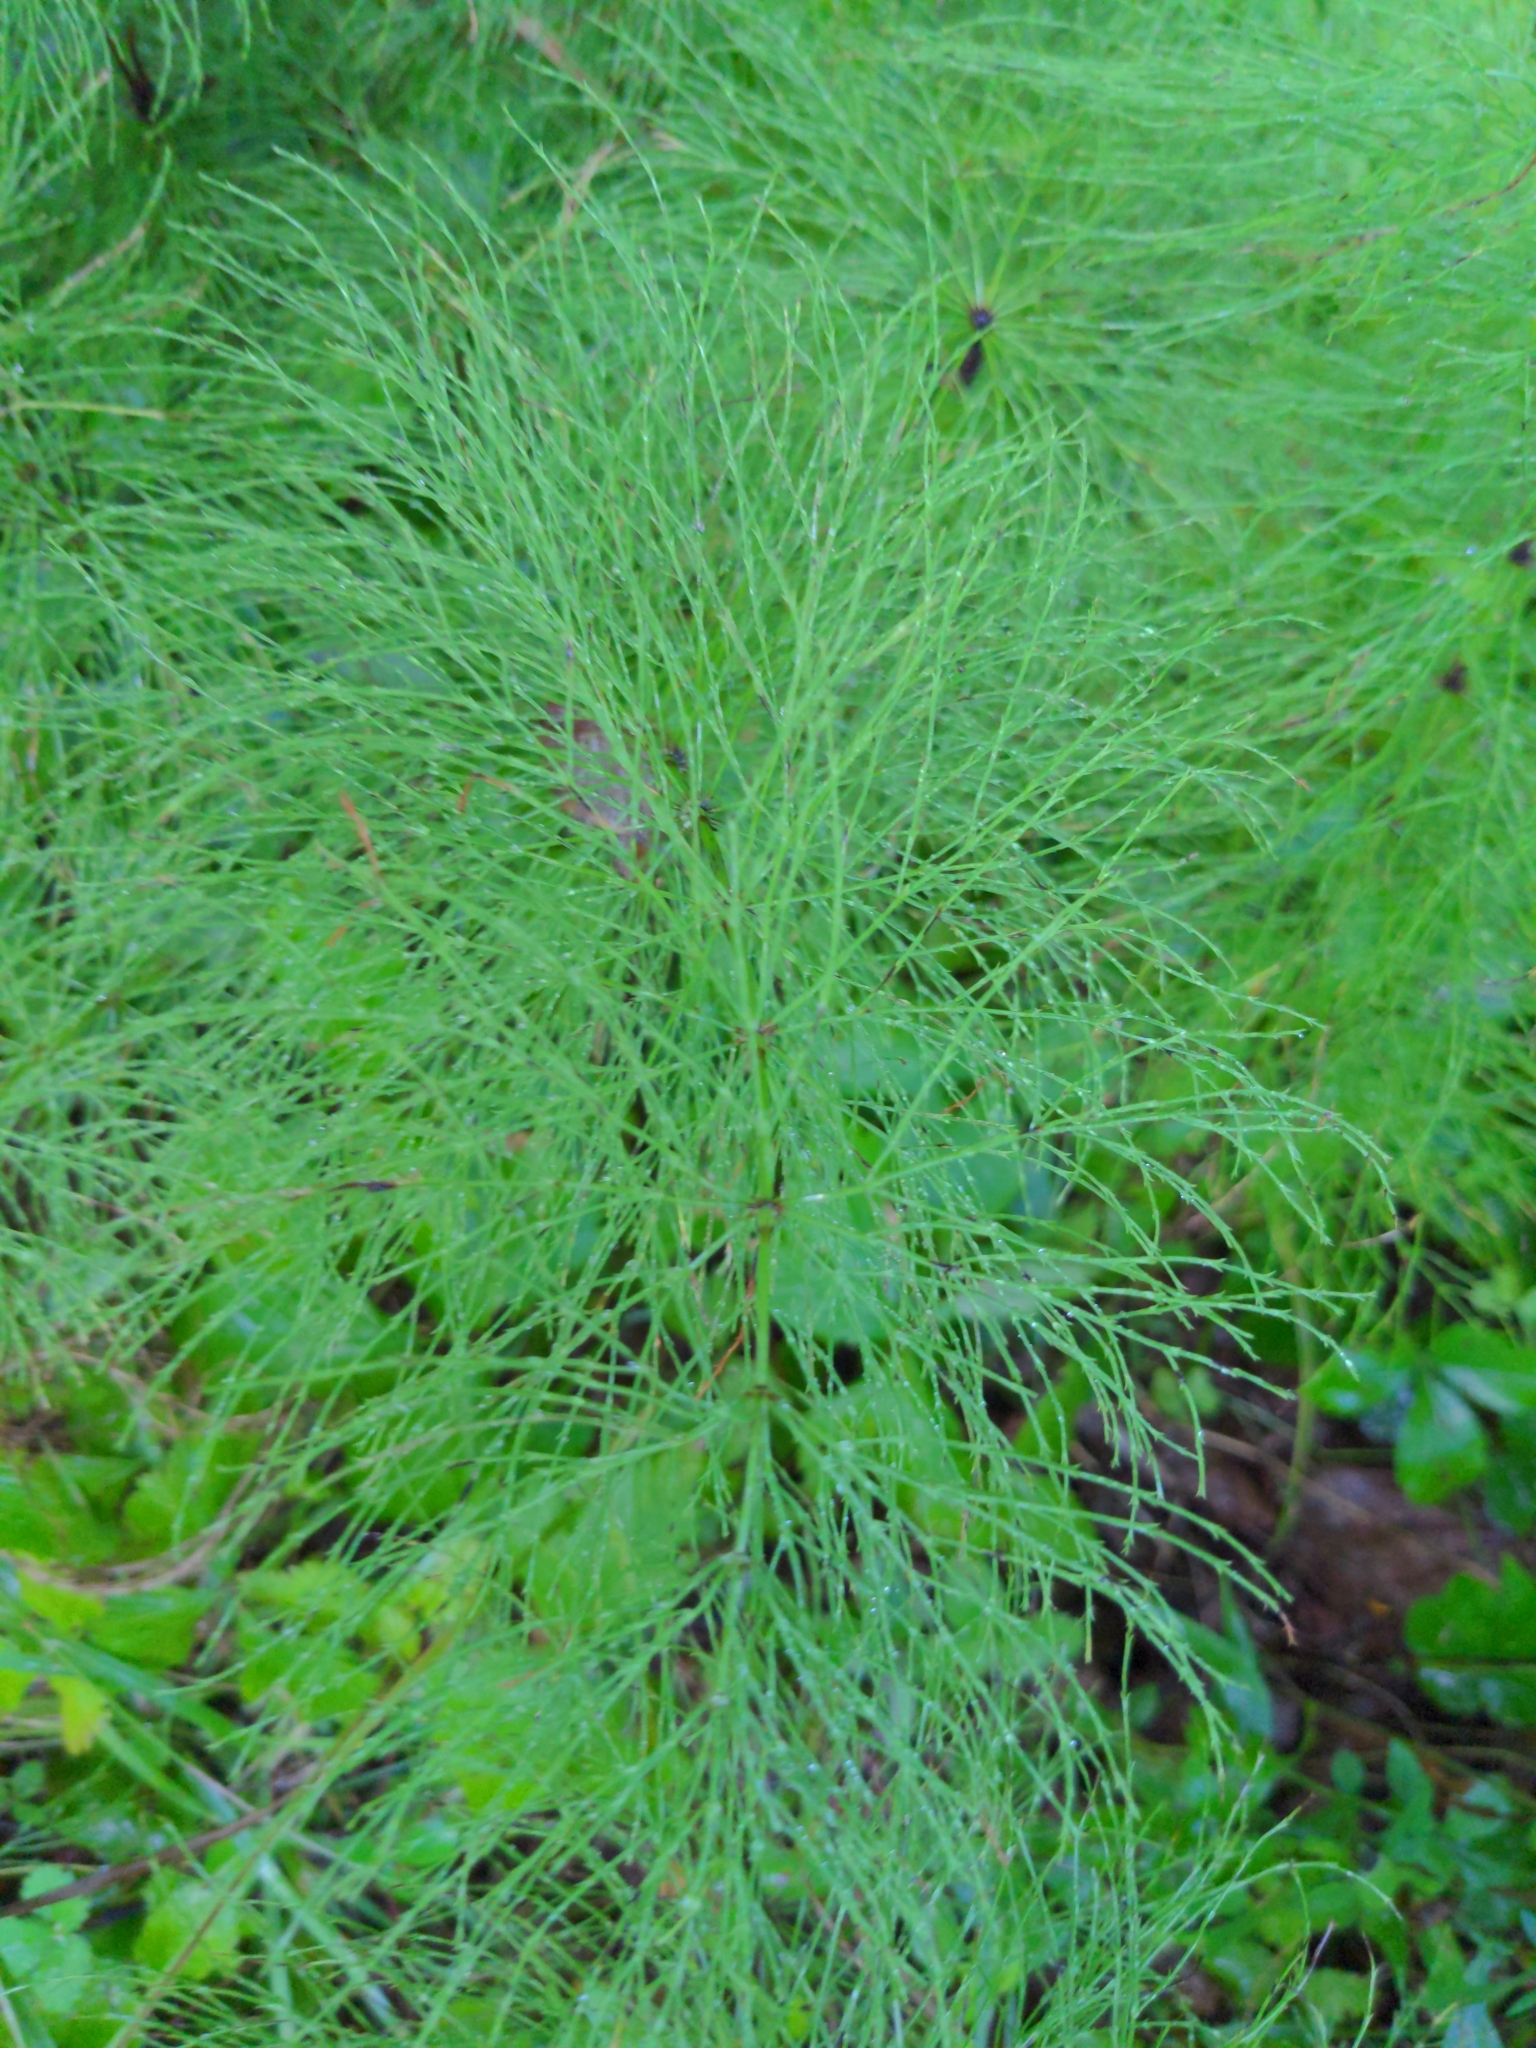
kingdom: Plantae
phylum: Tracheophyta
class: Polypodiopsida
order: Equisetales
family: Equisetaceae
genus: Equisetum
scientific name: Equisetum sylvaticum
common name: Wood horsetail
